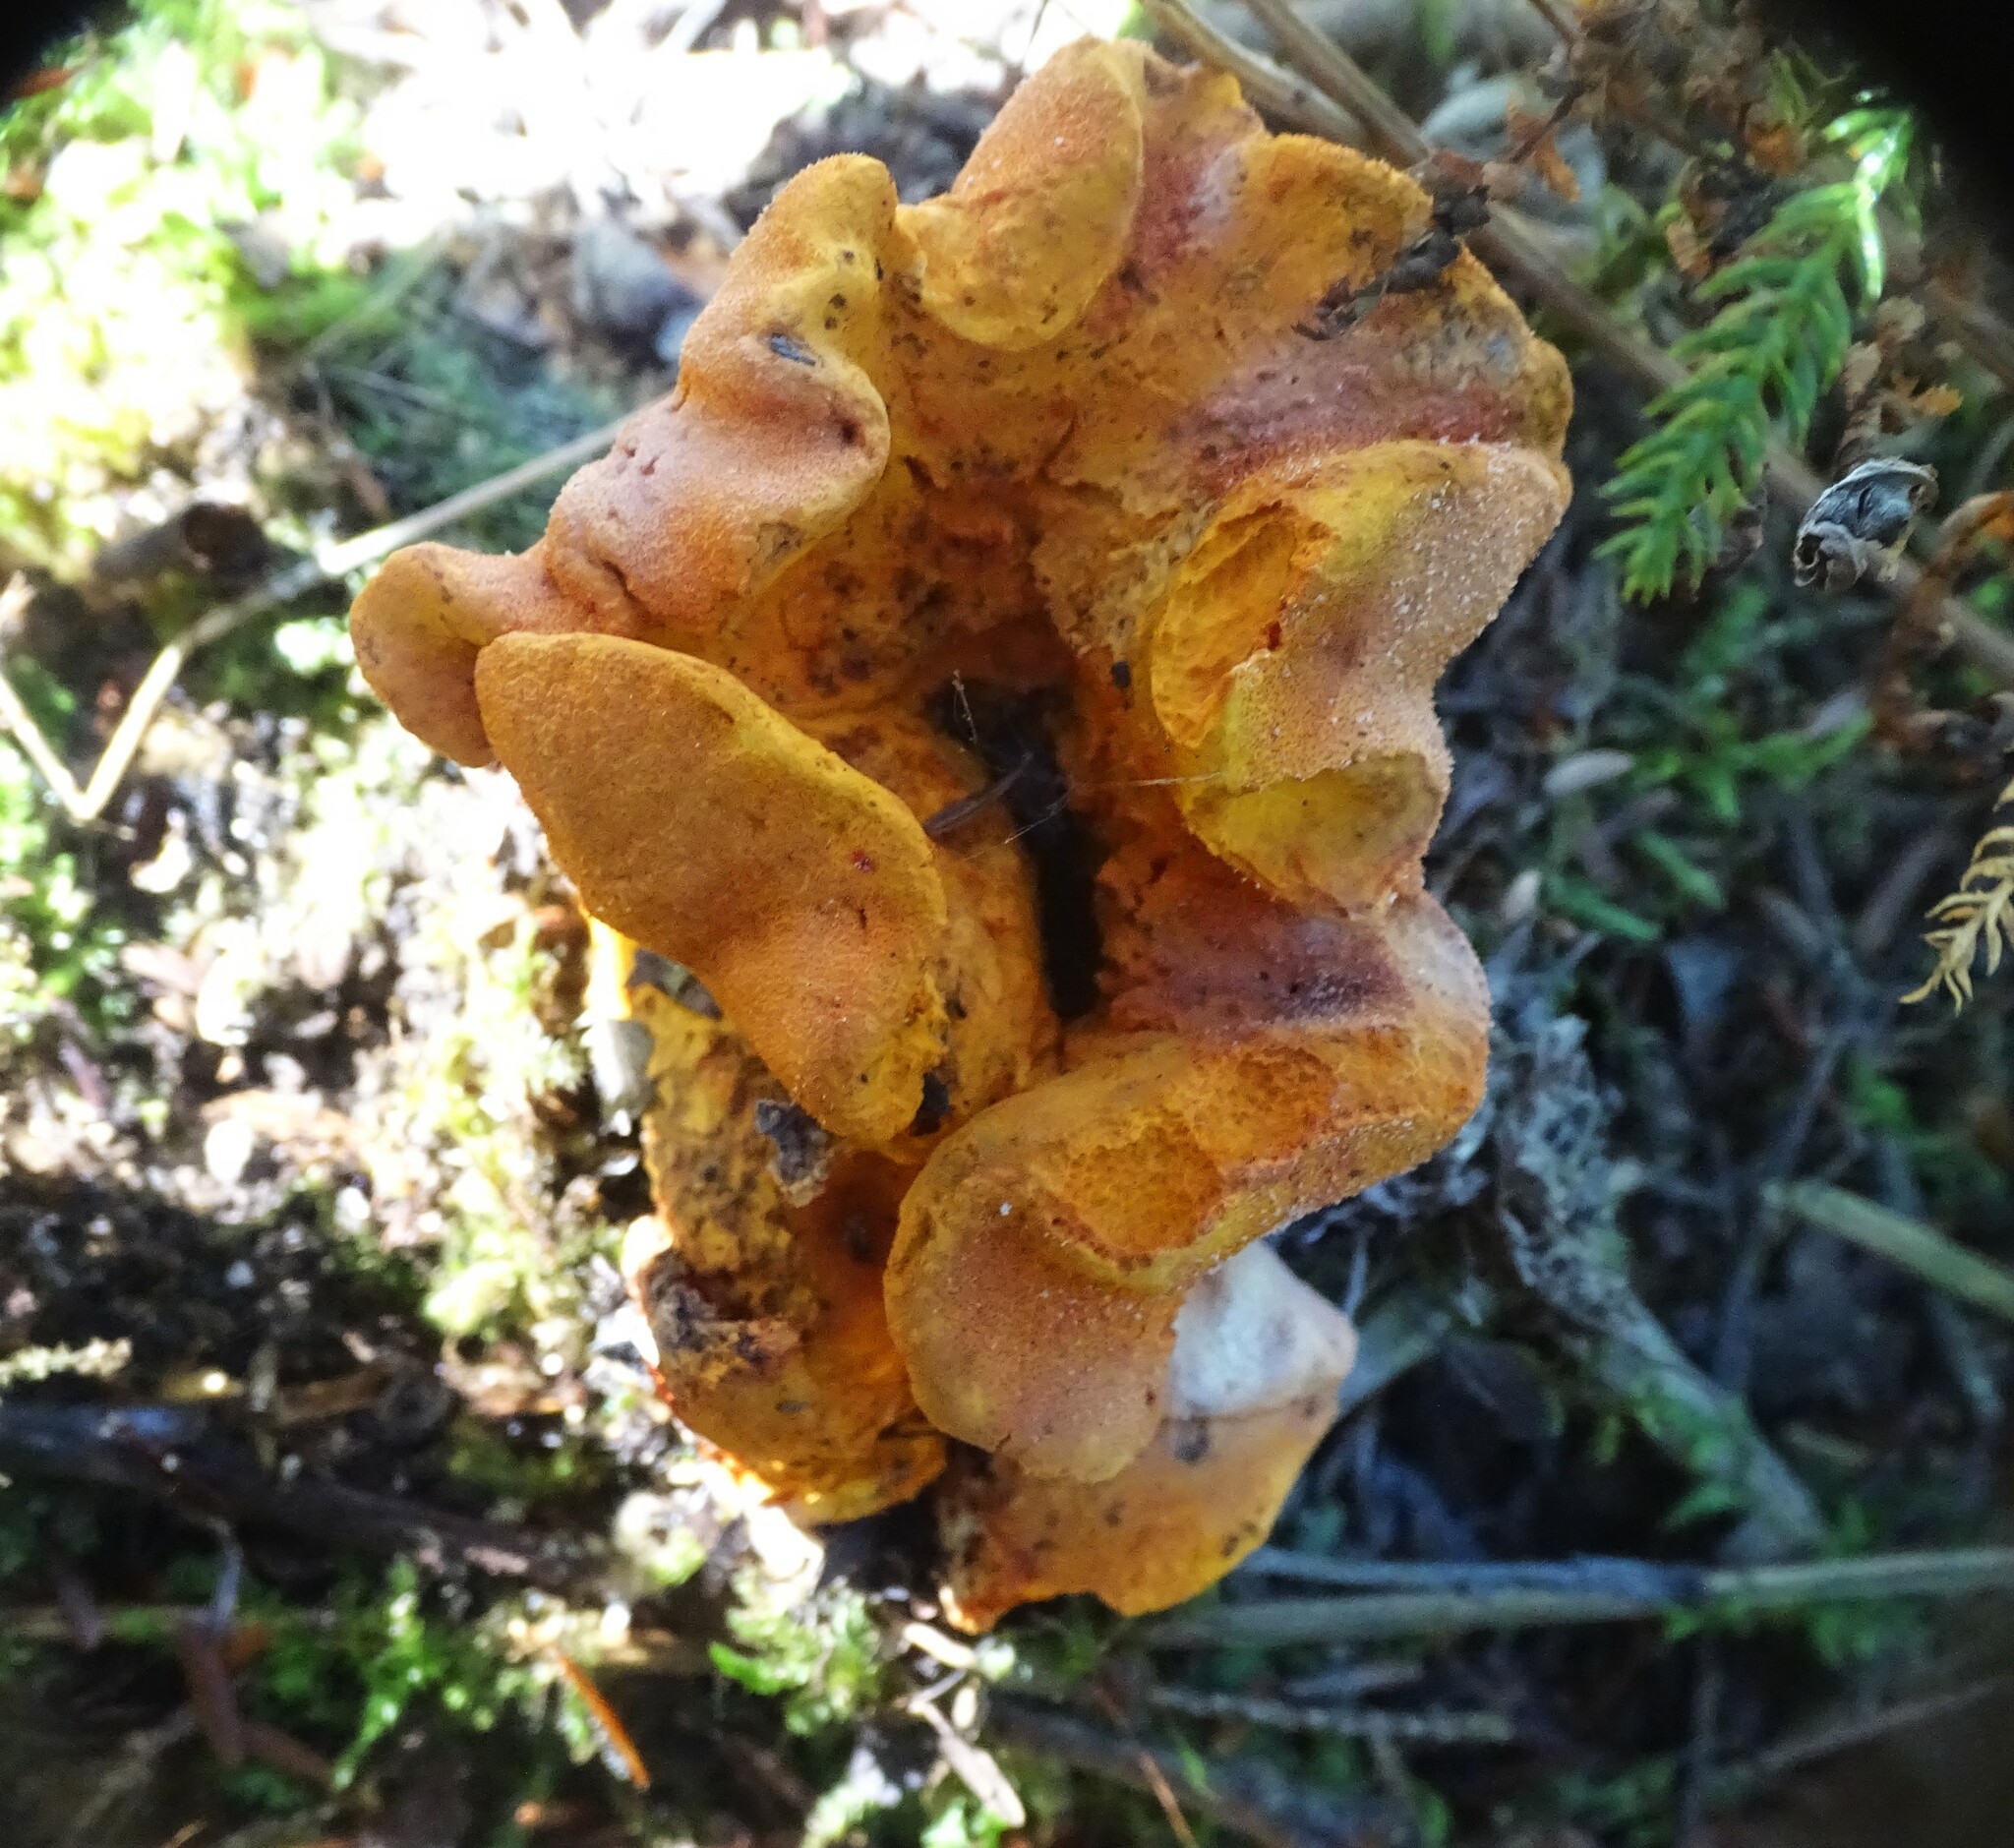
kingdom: Fungi
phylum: Ascomycota
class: Sordariomycetes
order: Hypocreales
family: Hypocreaceae
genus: Hypomyces
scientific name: Hypomyces lactifluorum
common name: Lobster mushroom
